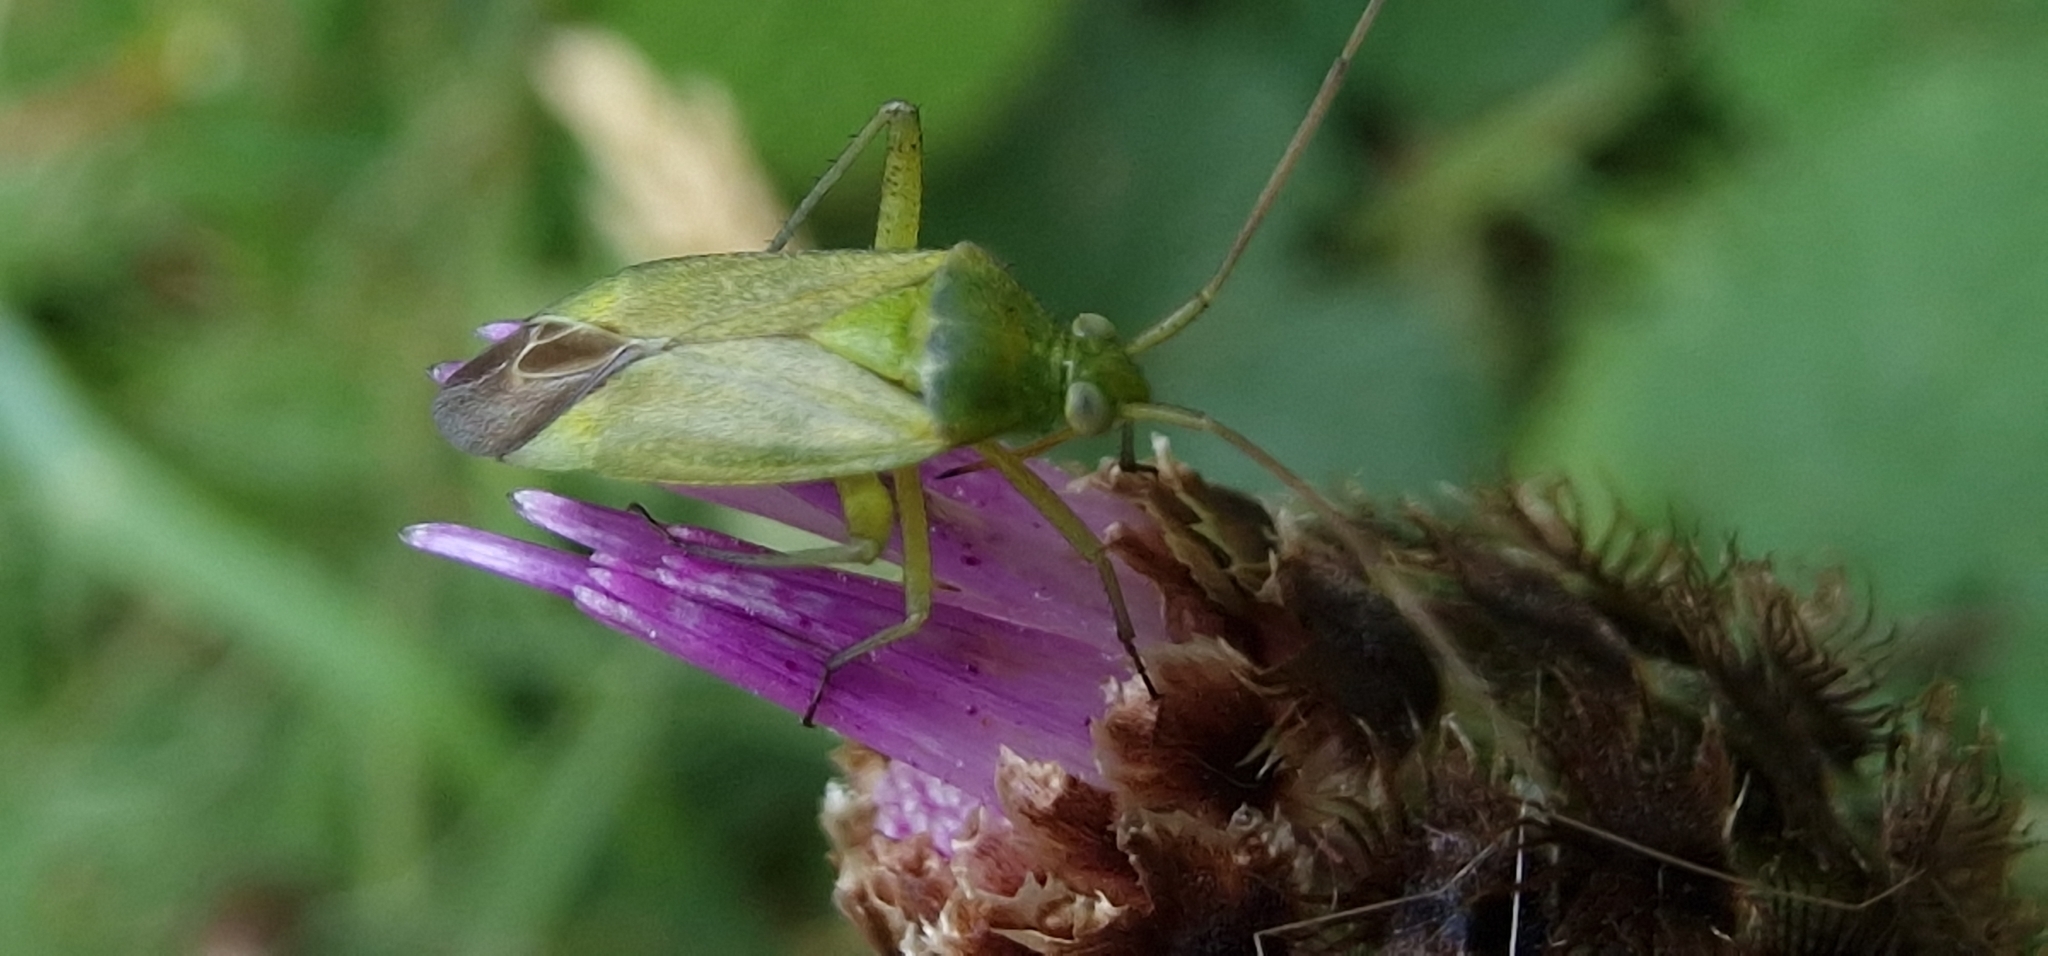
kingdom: Animalia
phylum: Arthropoda
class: Insecta
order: Hemiptera
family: Miridae
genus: Closterotomus
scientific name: Closterotomus norvegicus
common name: Plant bug
